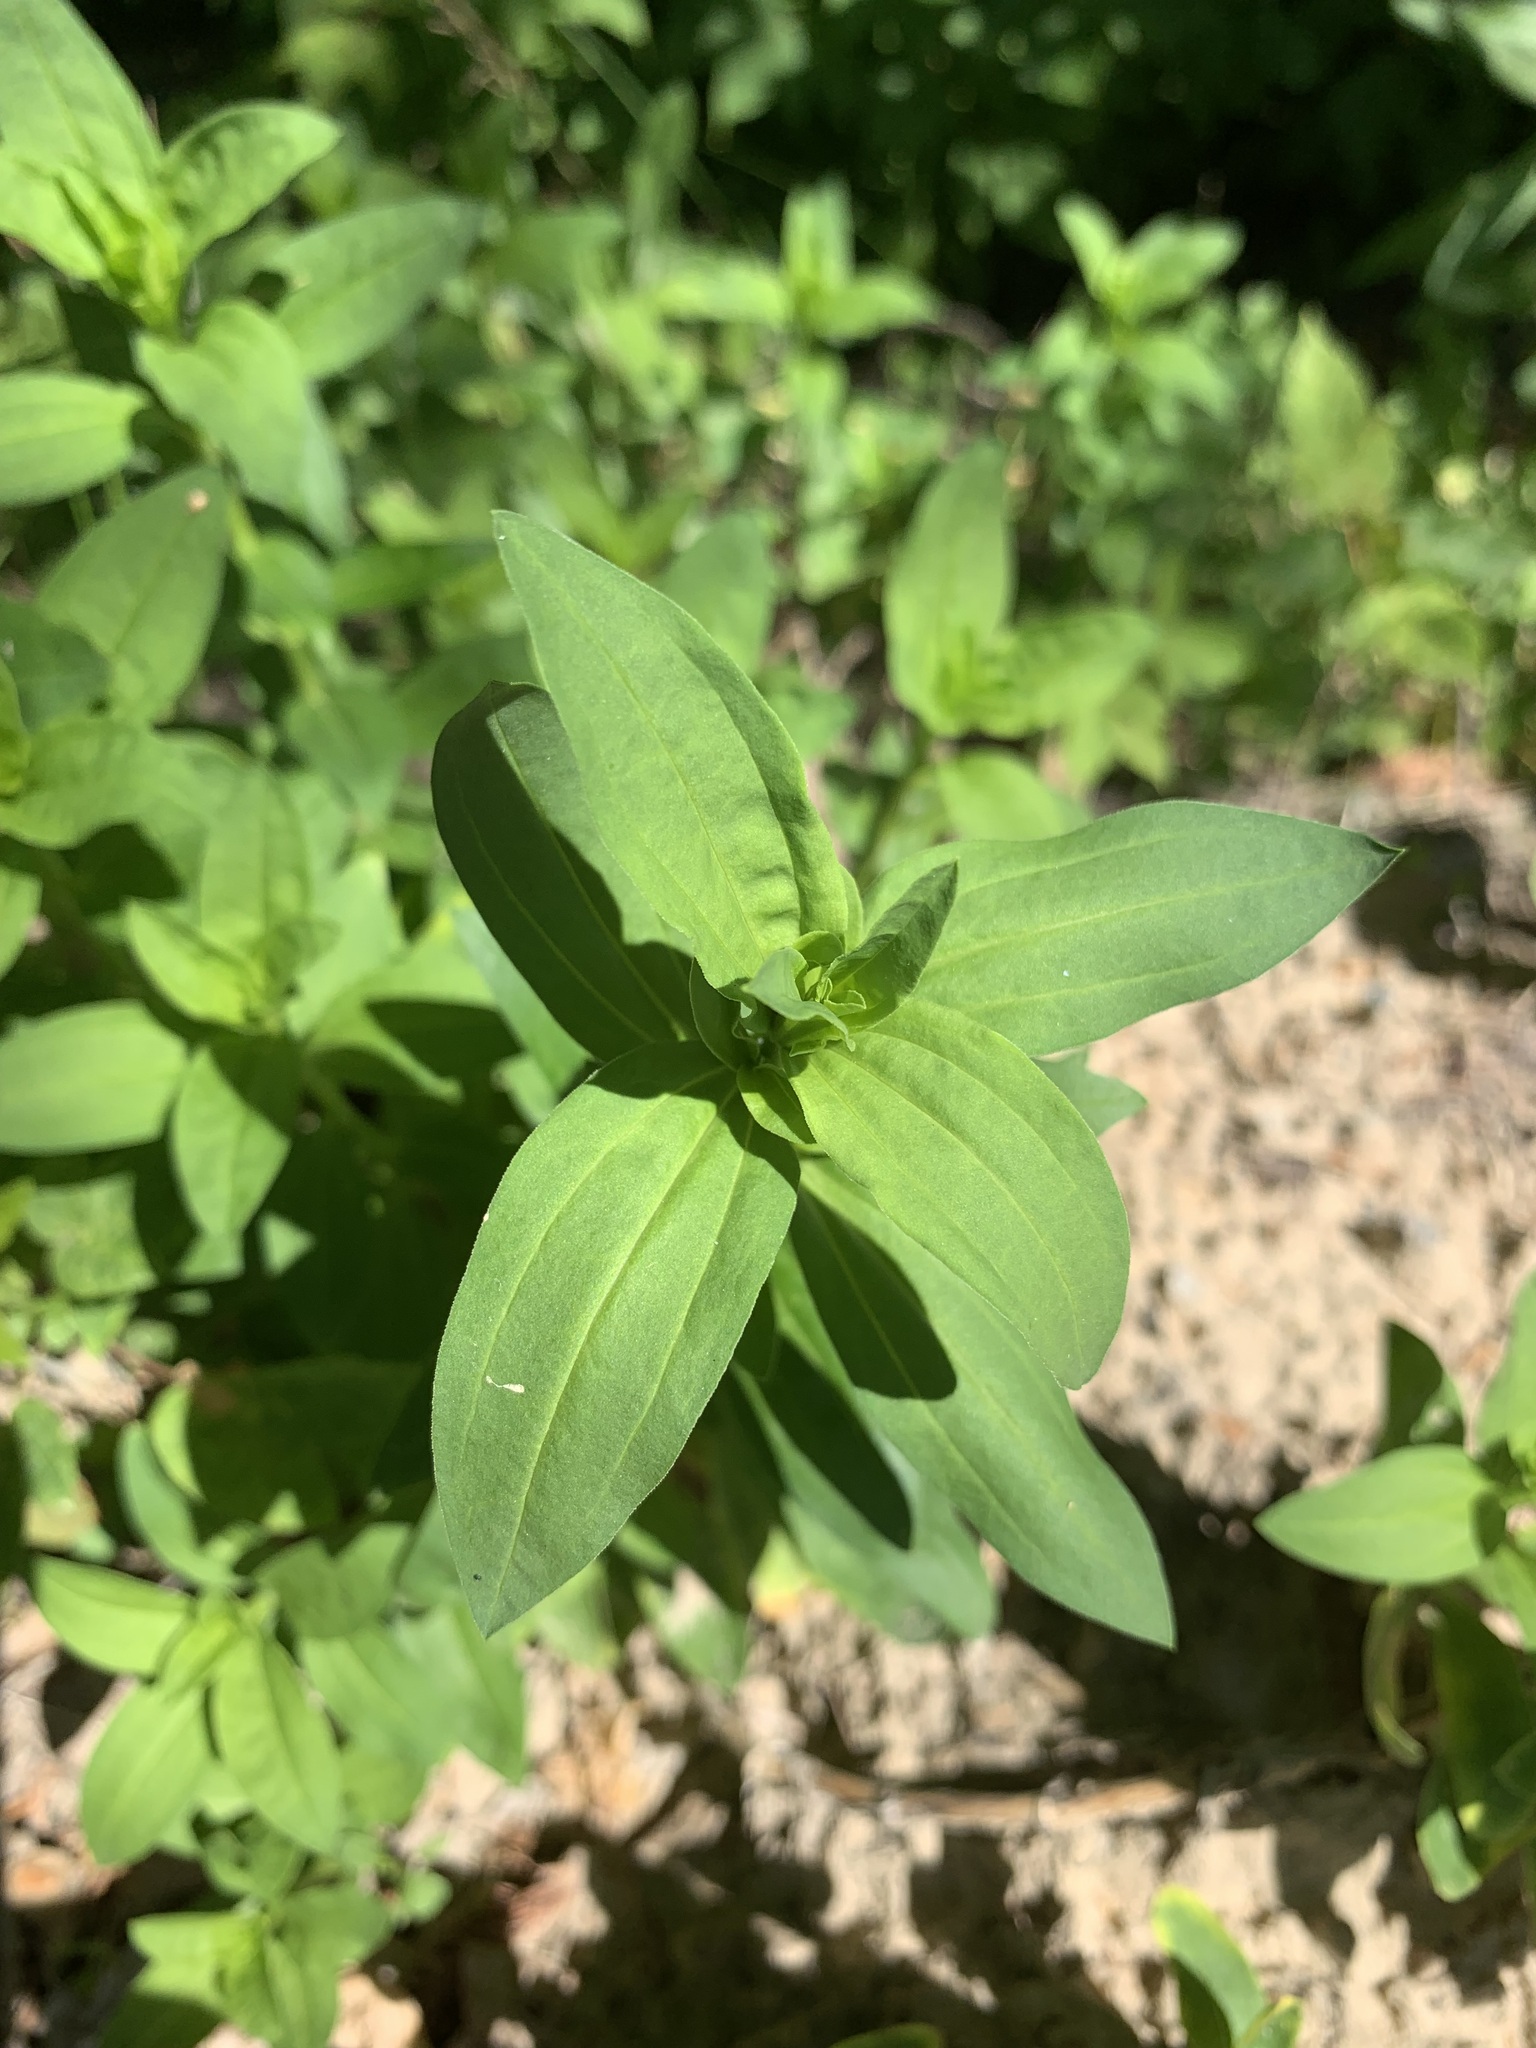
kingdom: Plantae
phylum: Tracheophyta
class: Magnoliopsida
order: Caryophyllales
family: Caryophyllaceae
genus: Saponaria
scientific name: Saponaria officinalis
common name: Soapwort
